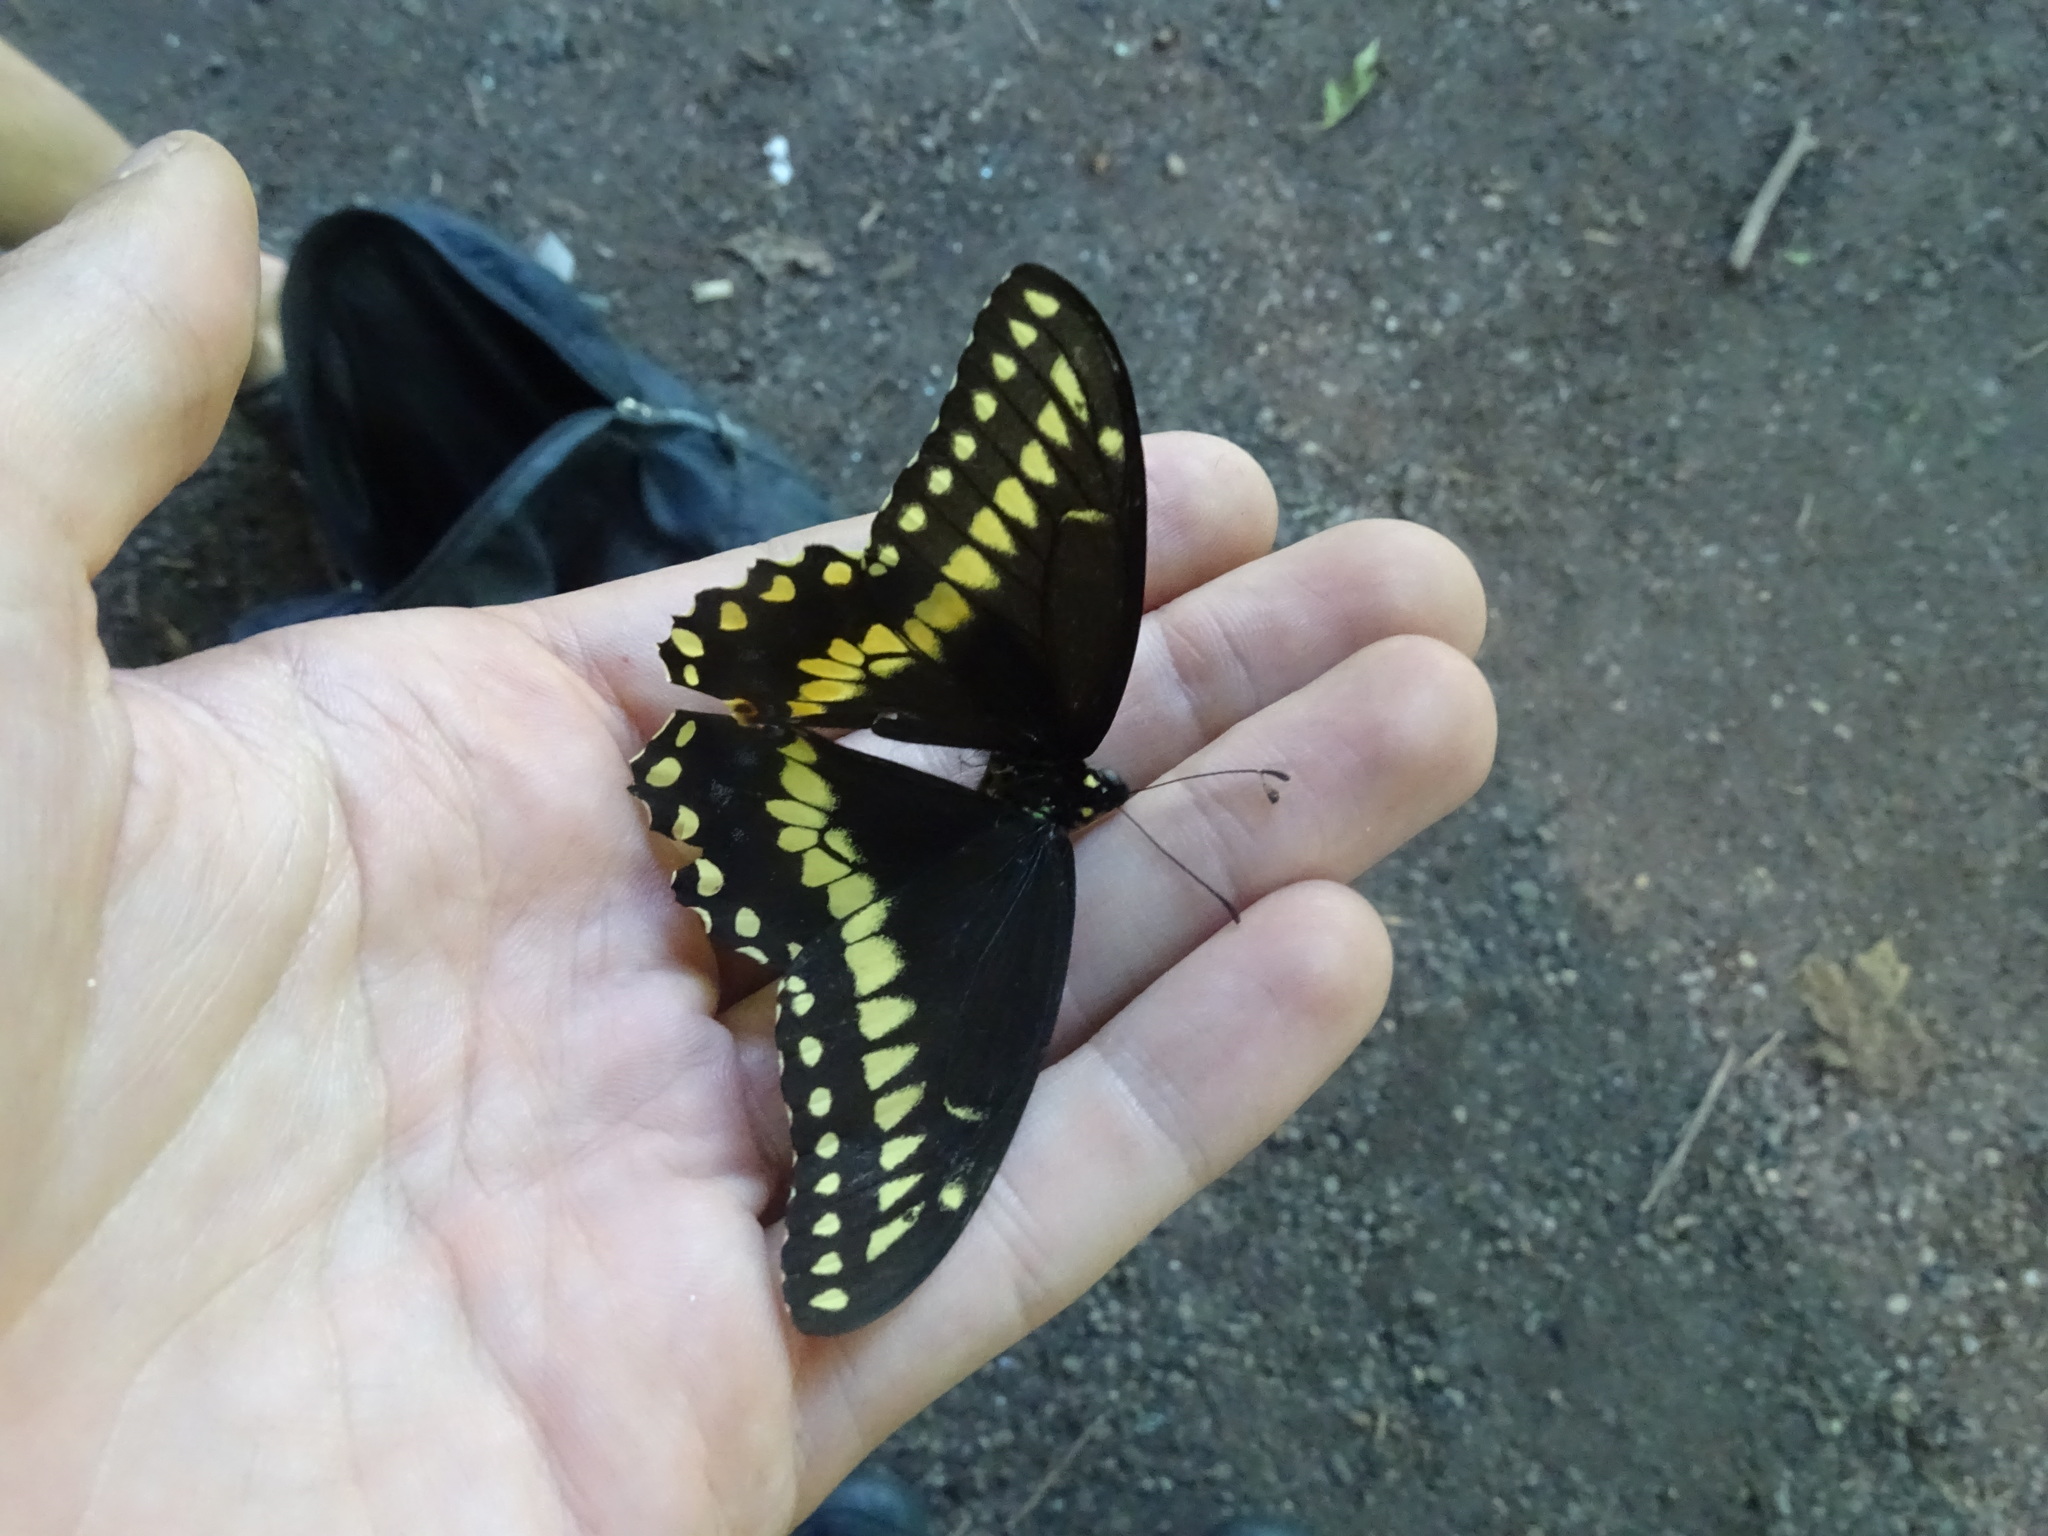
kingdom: Animalia
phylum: Arthropoda
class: Insecta
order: Lepidoptera
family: Papilionidae
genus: Papilio
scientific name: Papilio polyxenes
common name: Black swallowtail
